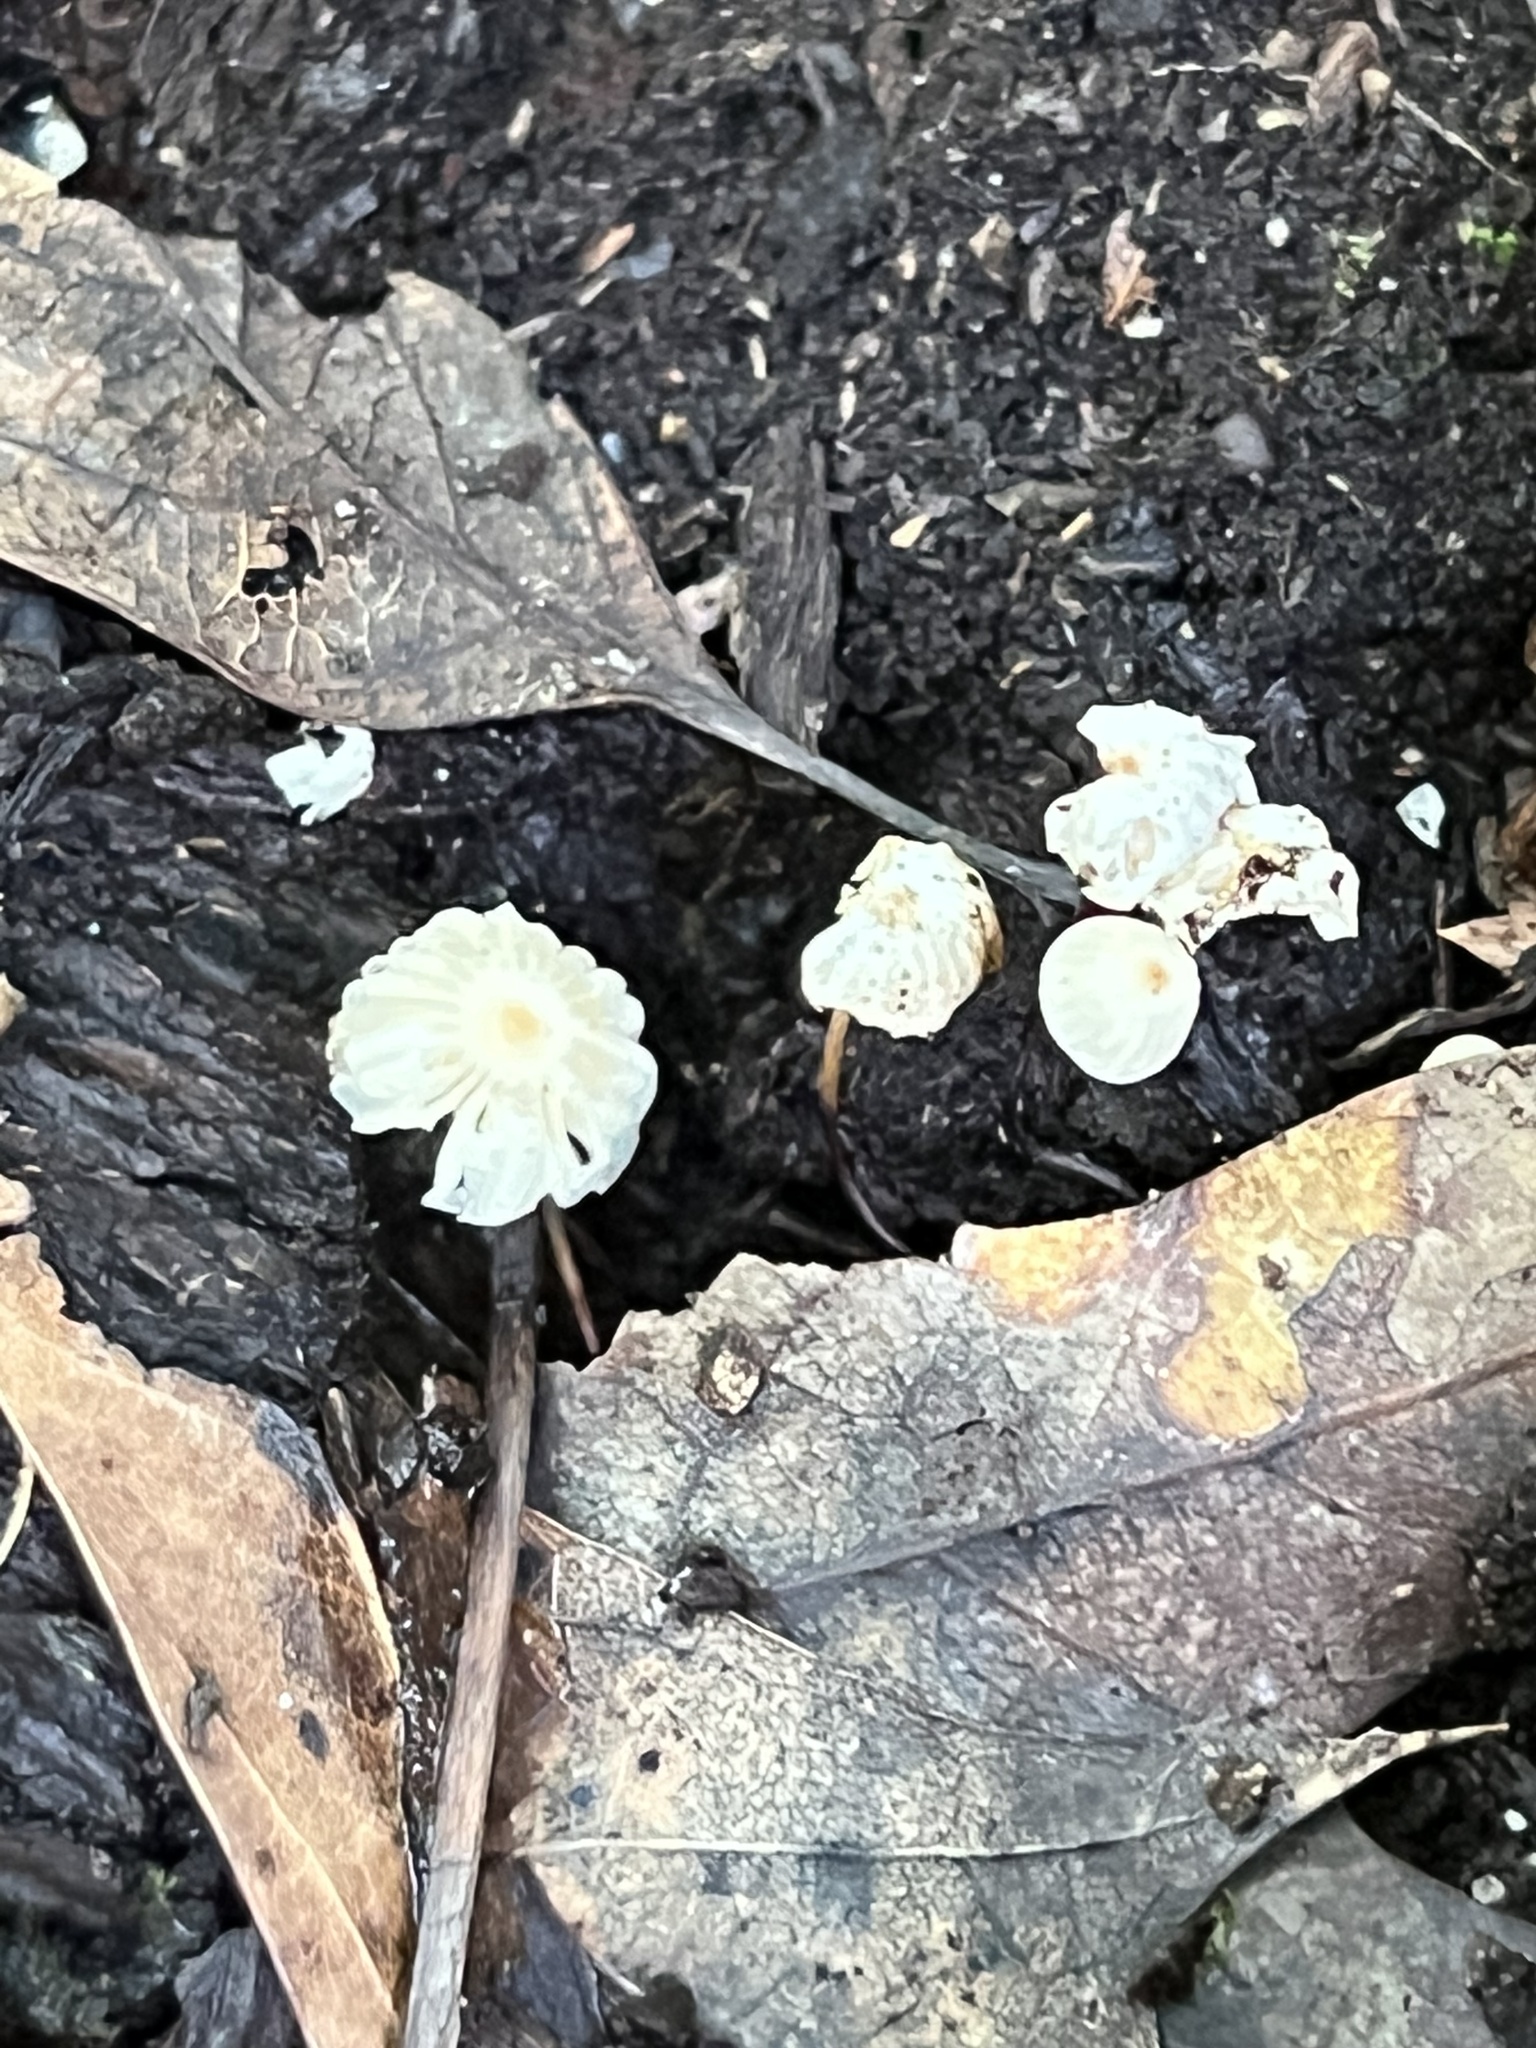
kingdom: Fungi
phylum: Basidiomycota
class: Agaricomycetes
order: Agaricales
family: Marasmiaceae
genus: Marasmius
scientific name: Marasmius rotula
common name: Collared parachute
